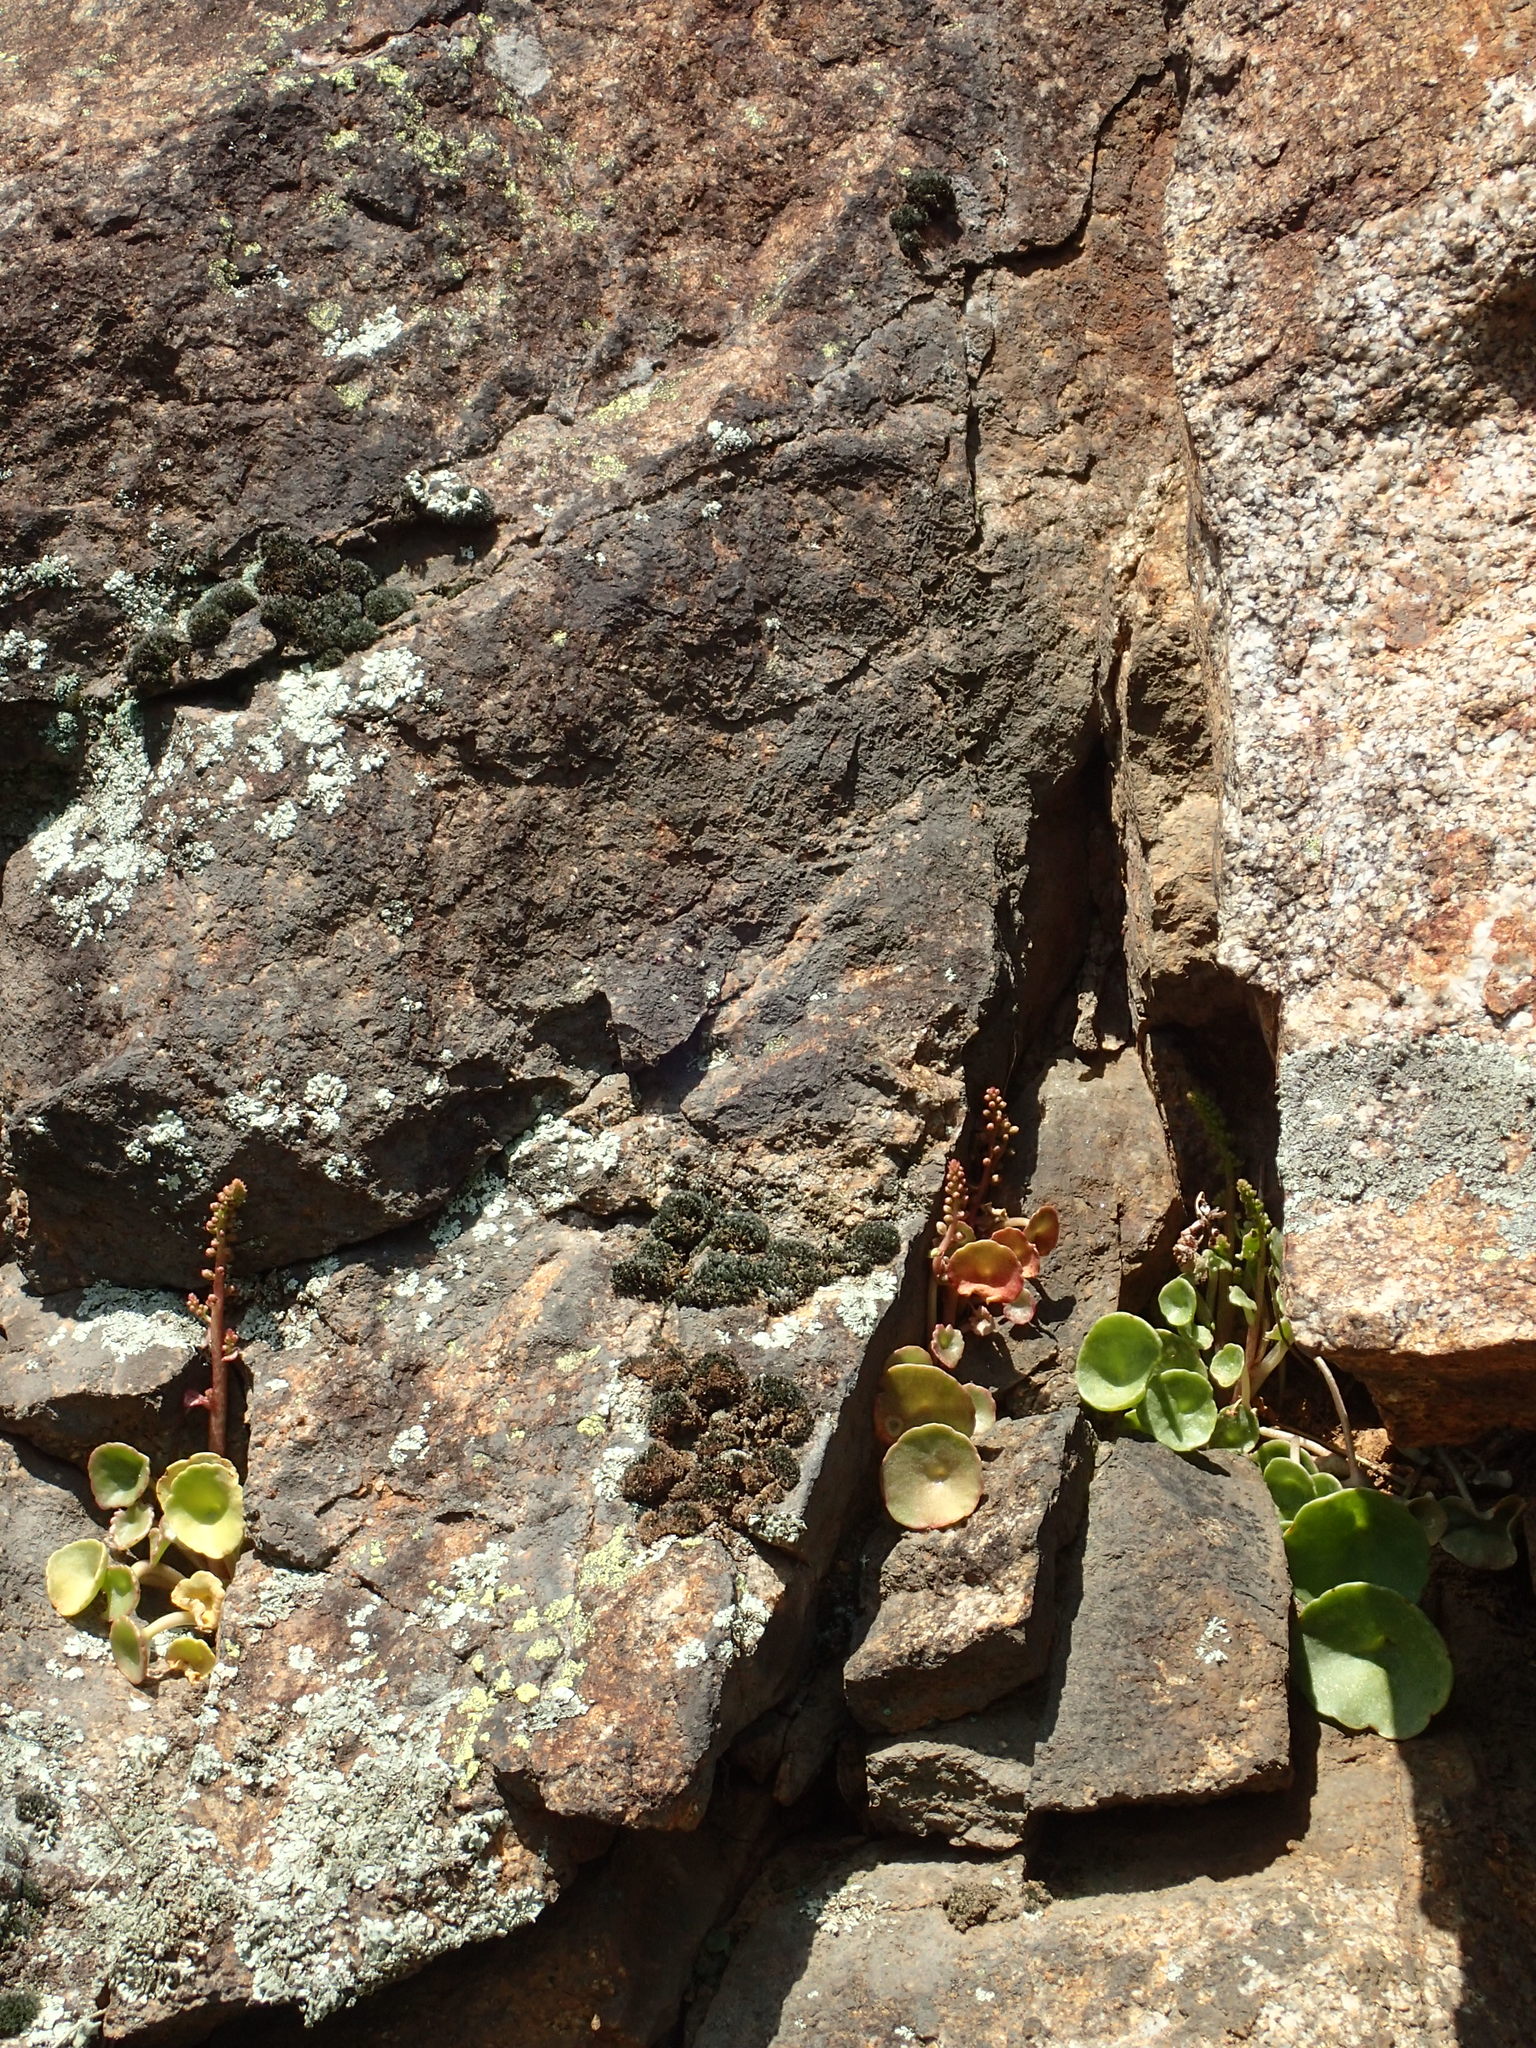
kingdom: Plantae
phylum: Tracheophyta
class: Magnoliopsida
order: Saxifragales
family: Crassulaceae
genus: Umbilicus
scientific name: Umbilicus rupestris
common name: Navelwort
